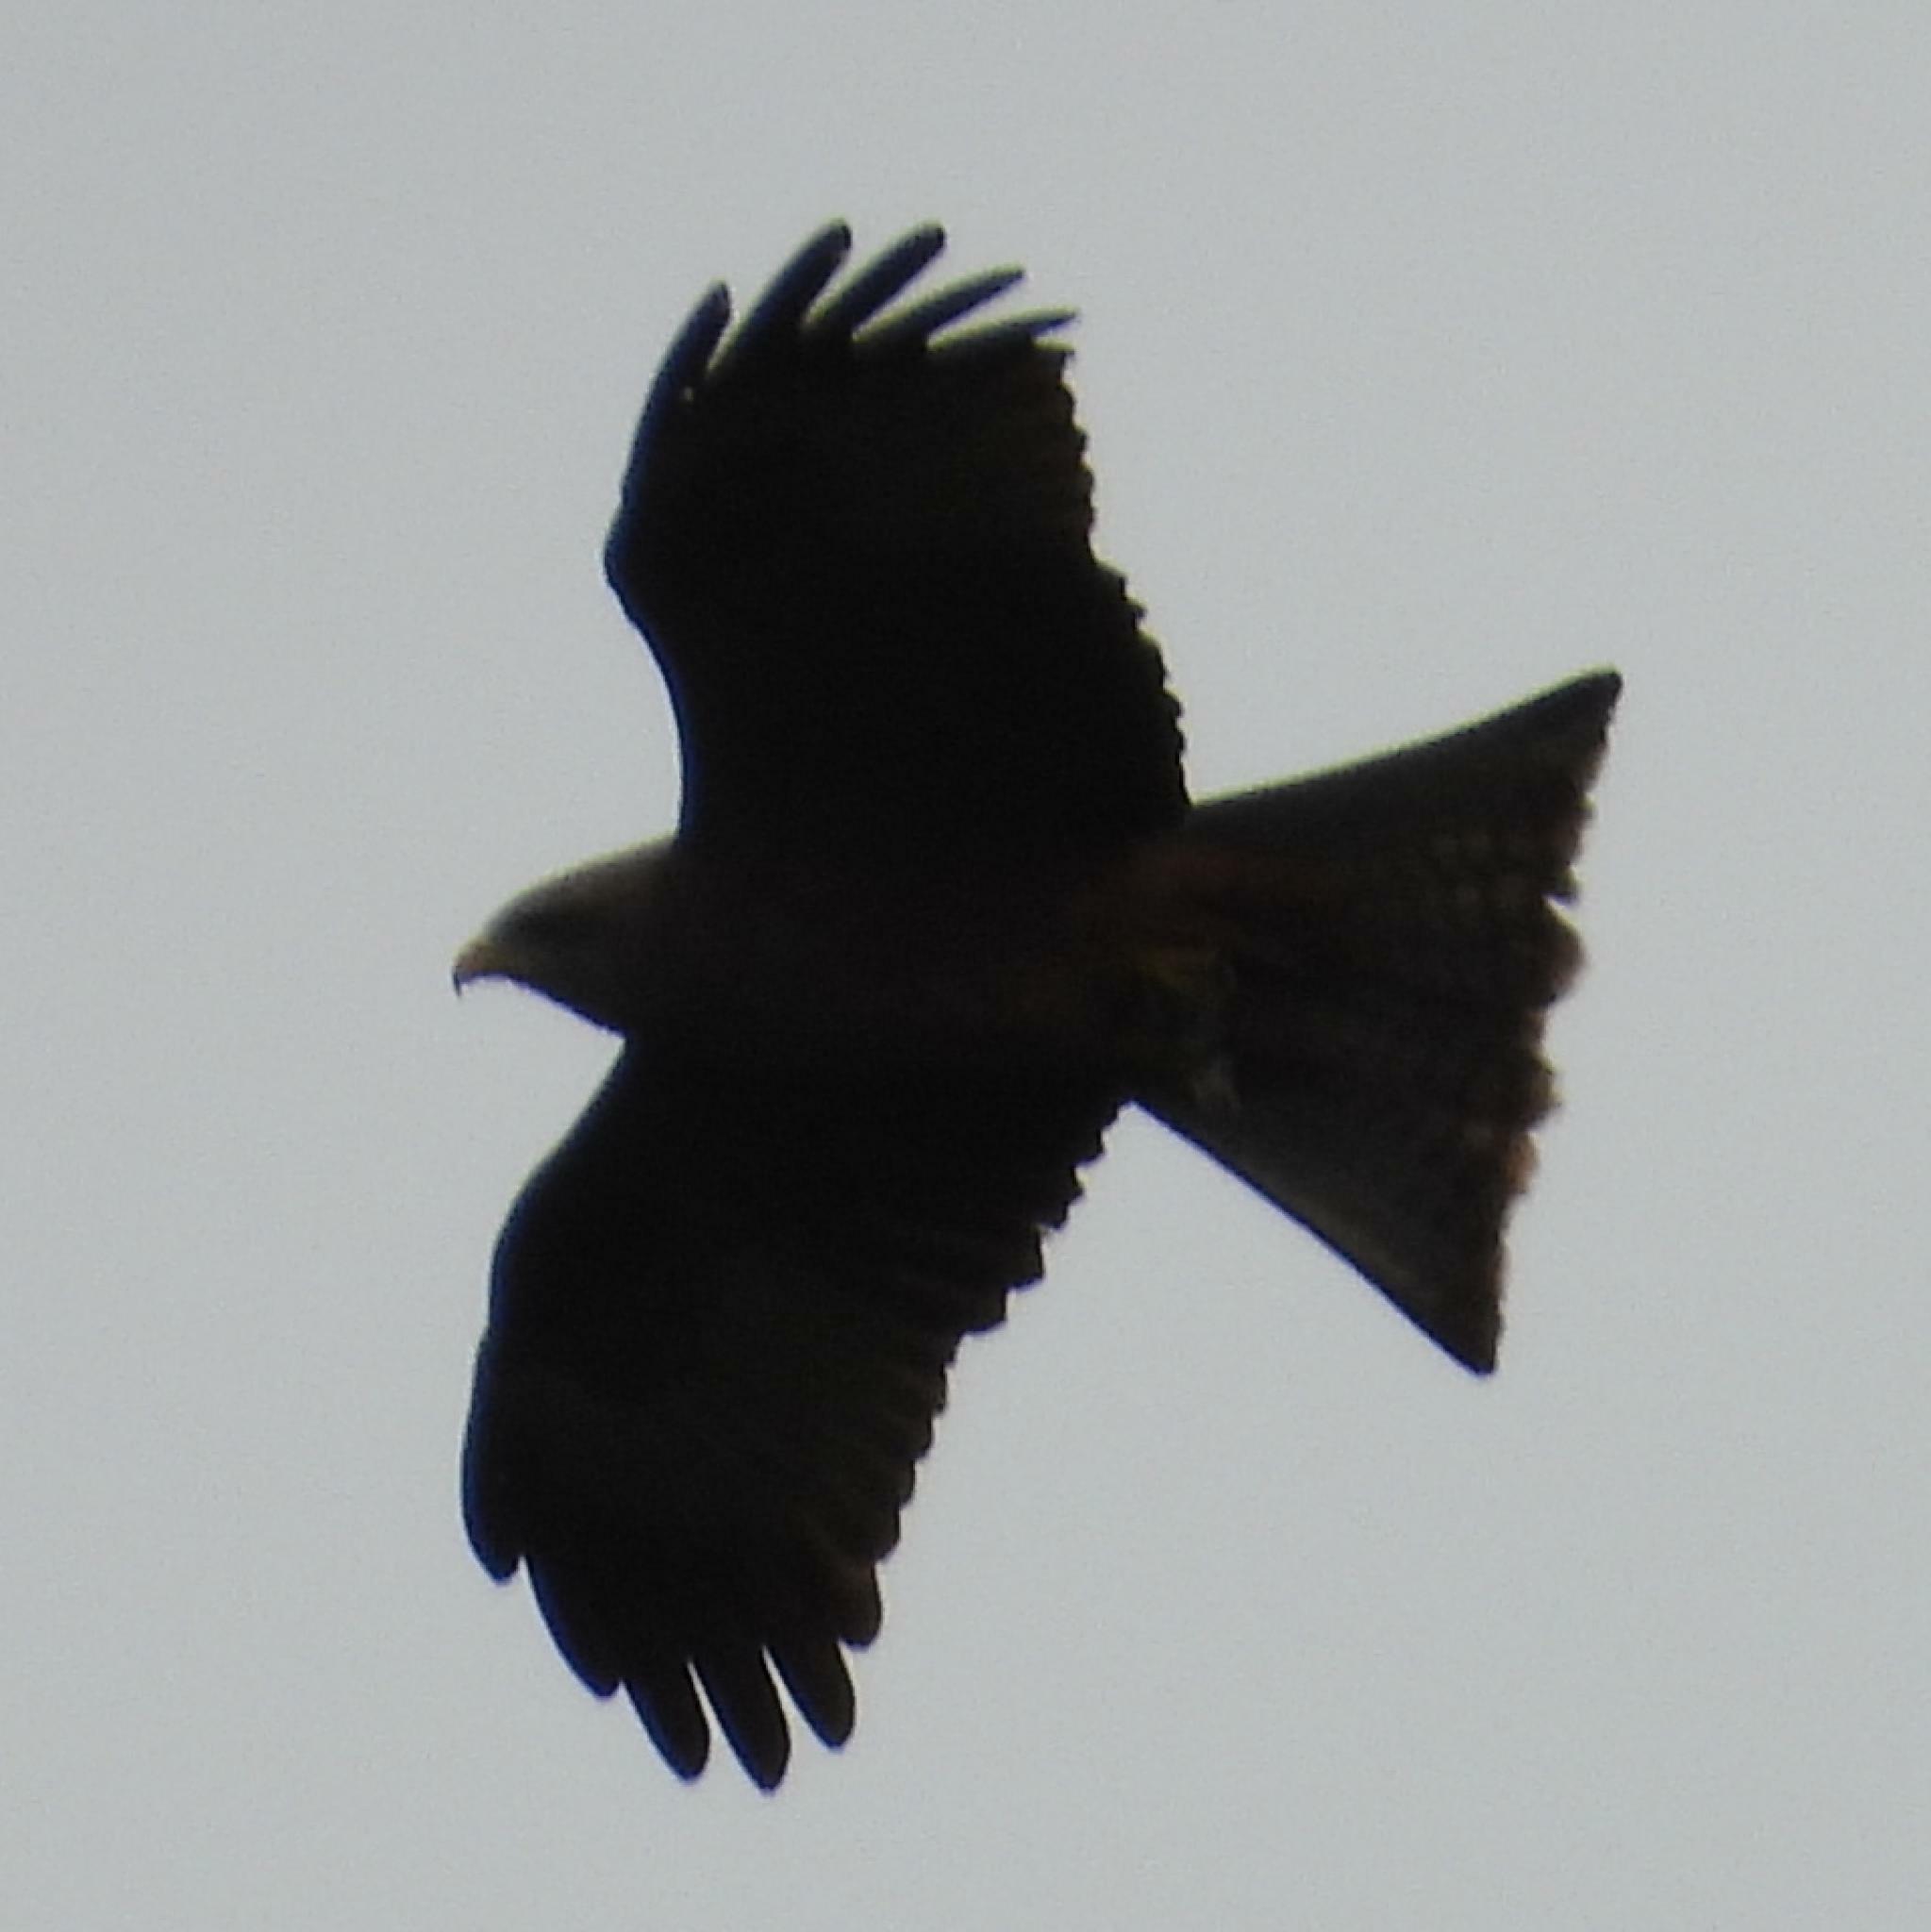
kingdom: Animalia
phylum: Chordata
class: Aves
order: Accipitriformes
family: Accipitridae
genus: Milvus
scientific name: Milvus migrans
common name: Black kite
